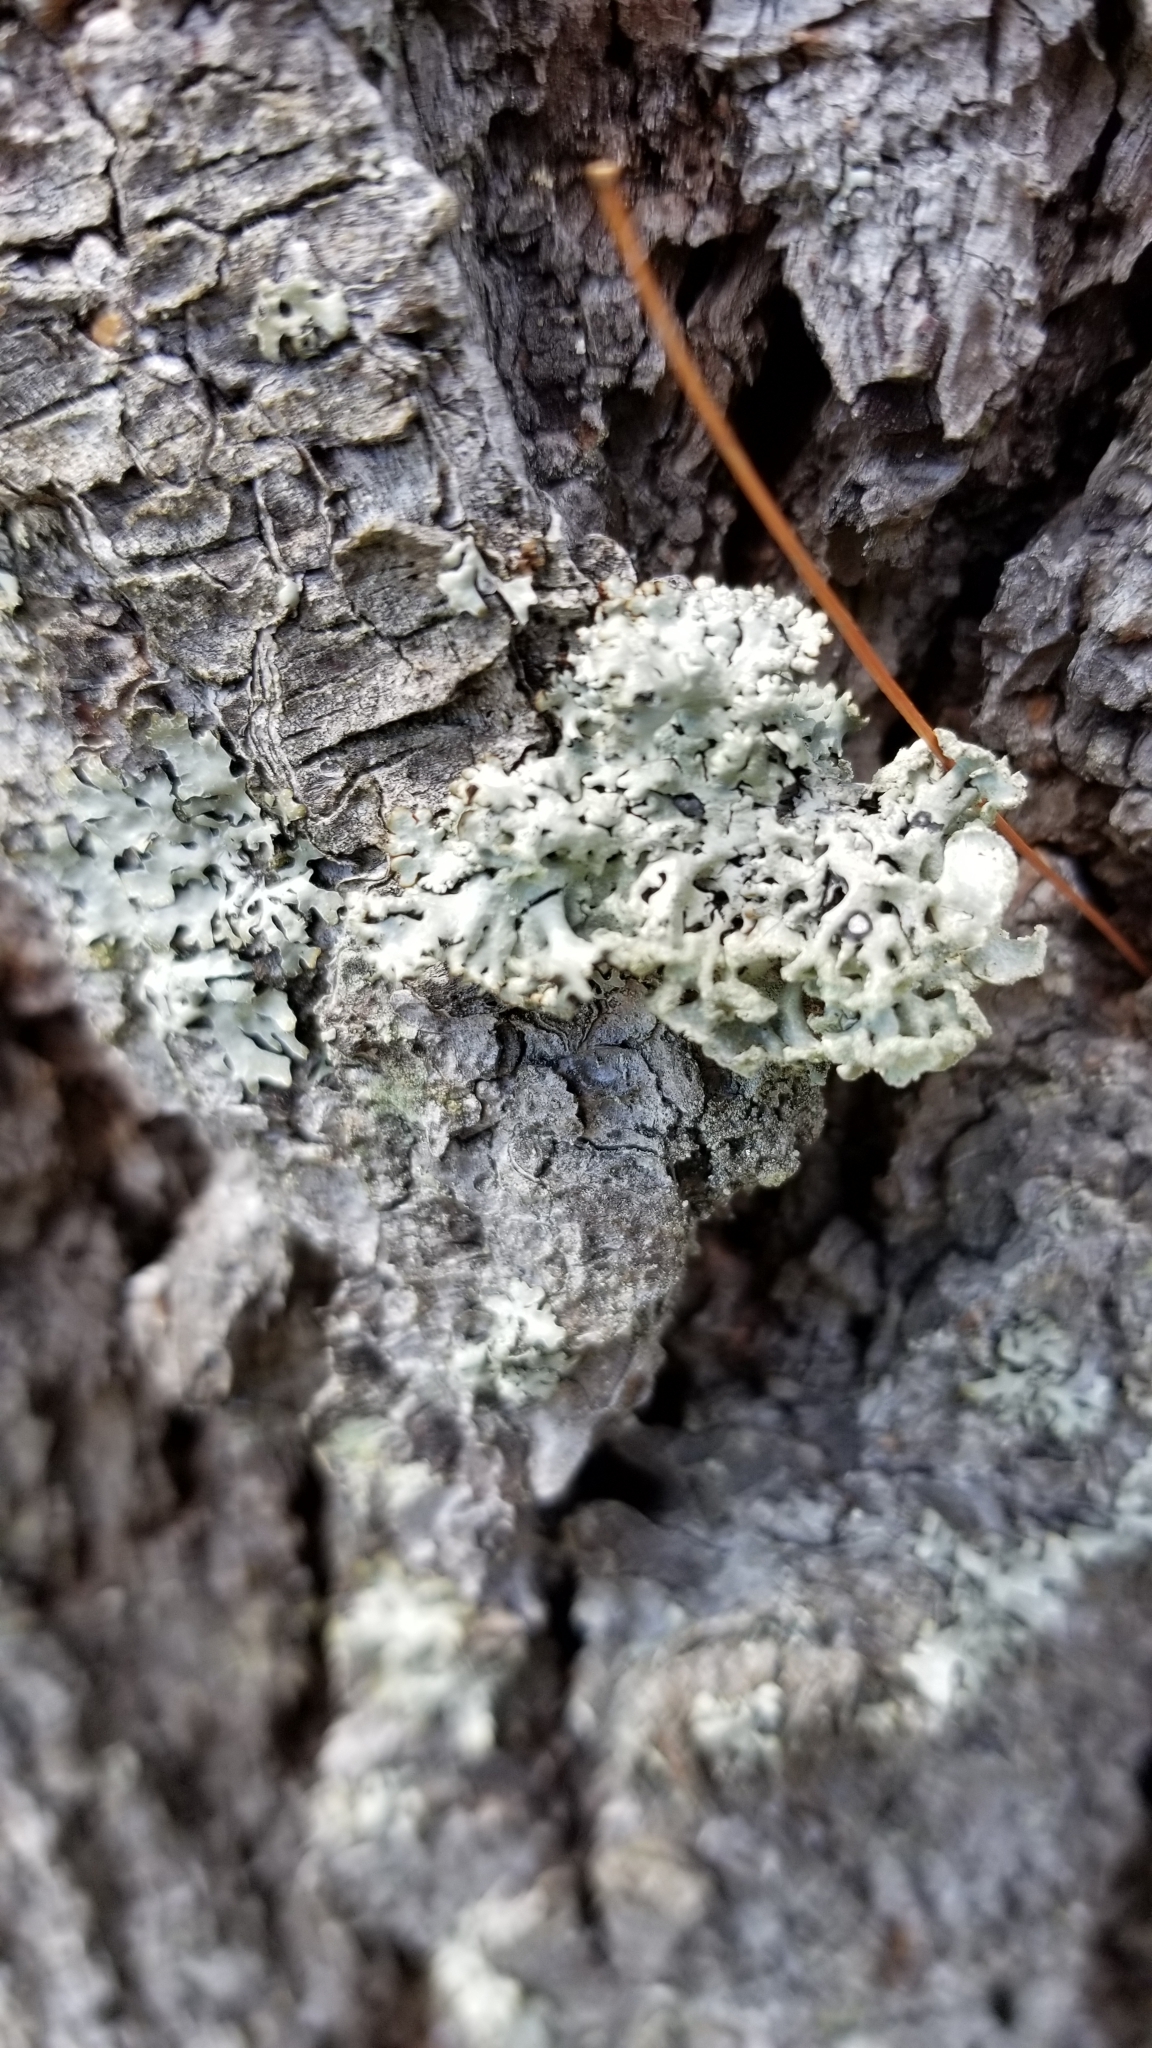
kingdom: Fungi
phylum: Ascomycota
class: Lecanoromycetes
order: Lecanorales
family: Parmeliaceae
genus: Hypogymnia
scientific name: Hypogymnia physodes
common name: Dark crottle
